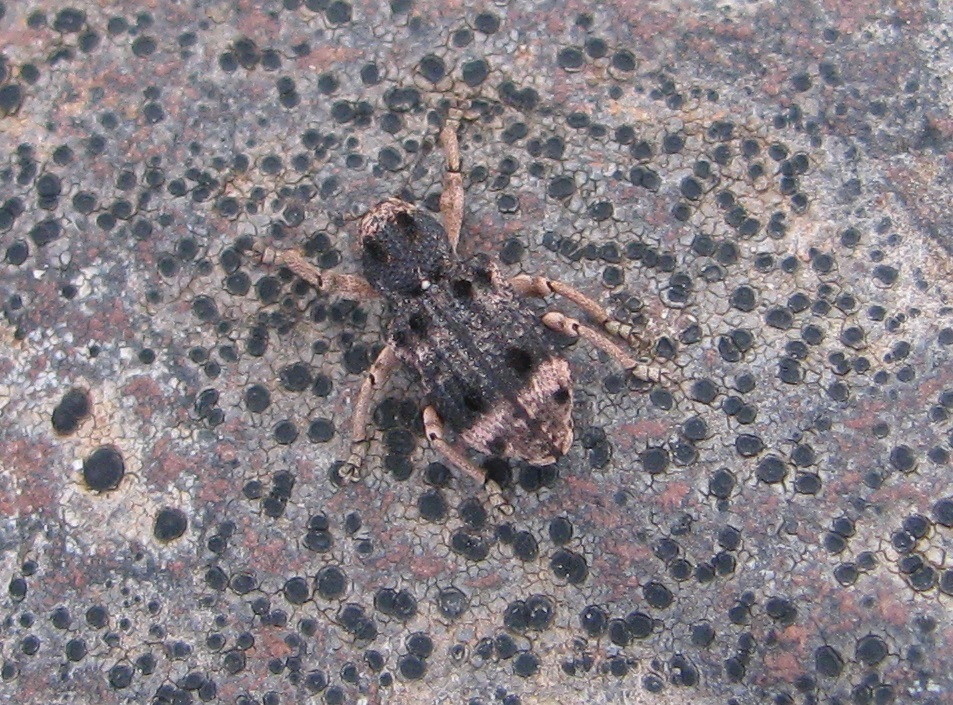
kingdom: Animalia
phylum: Arthropoda
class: Insecta
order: Coleoptera
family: Curculionidae
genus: Aades
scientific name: Aades cultratus
